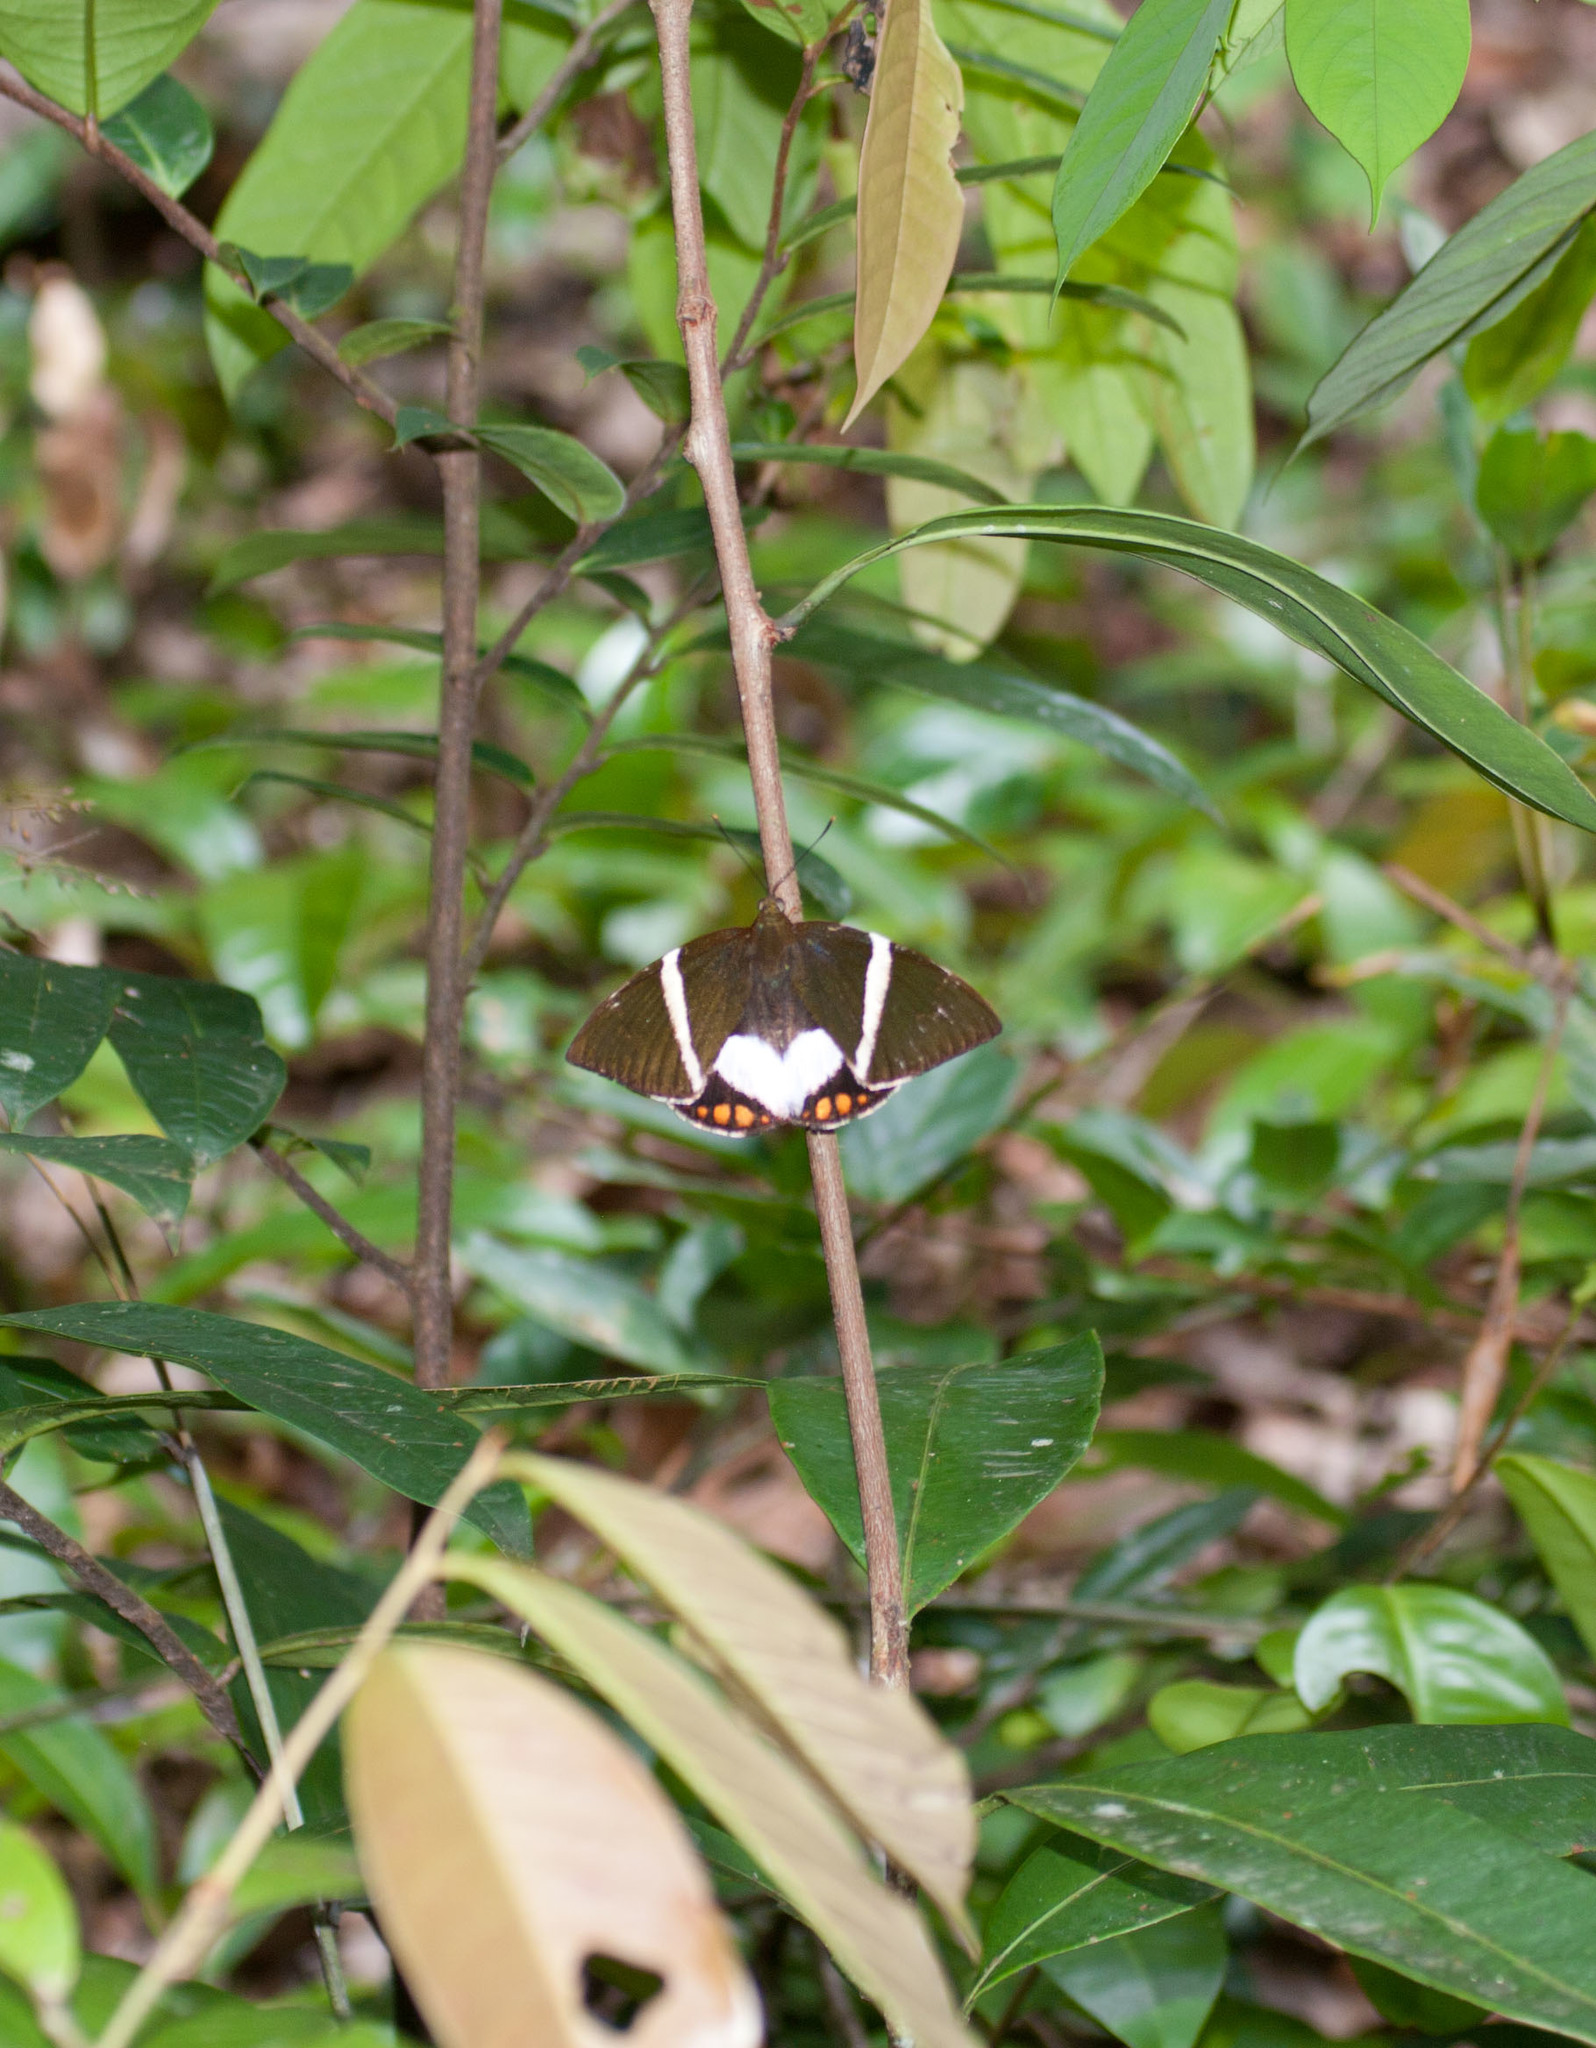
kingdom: Animalia
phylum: Arthropoda
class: Insecta
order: Lepidoptera
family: Castniidae
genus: Castnia
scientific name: Castnia licus
